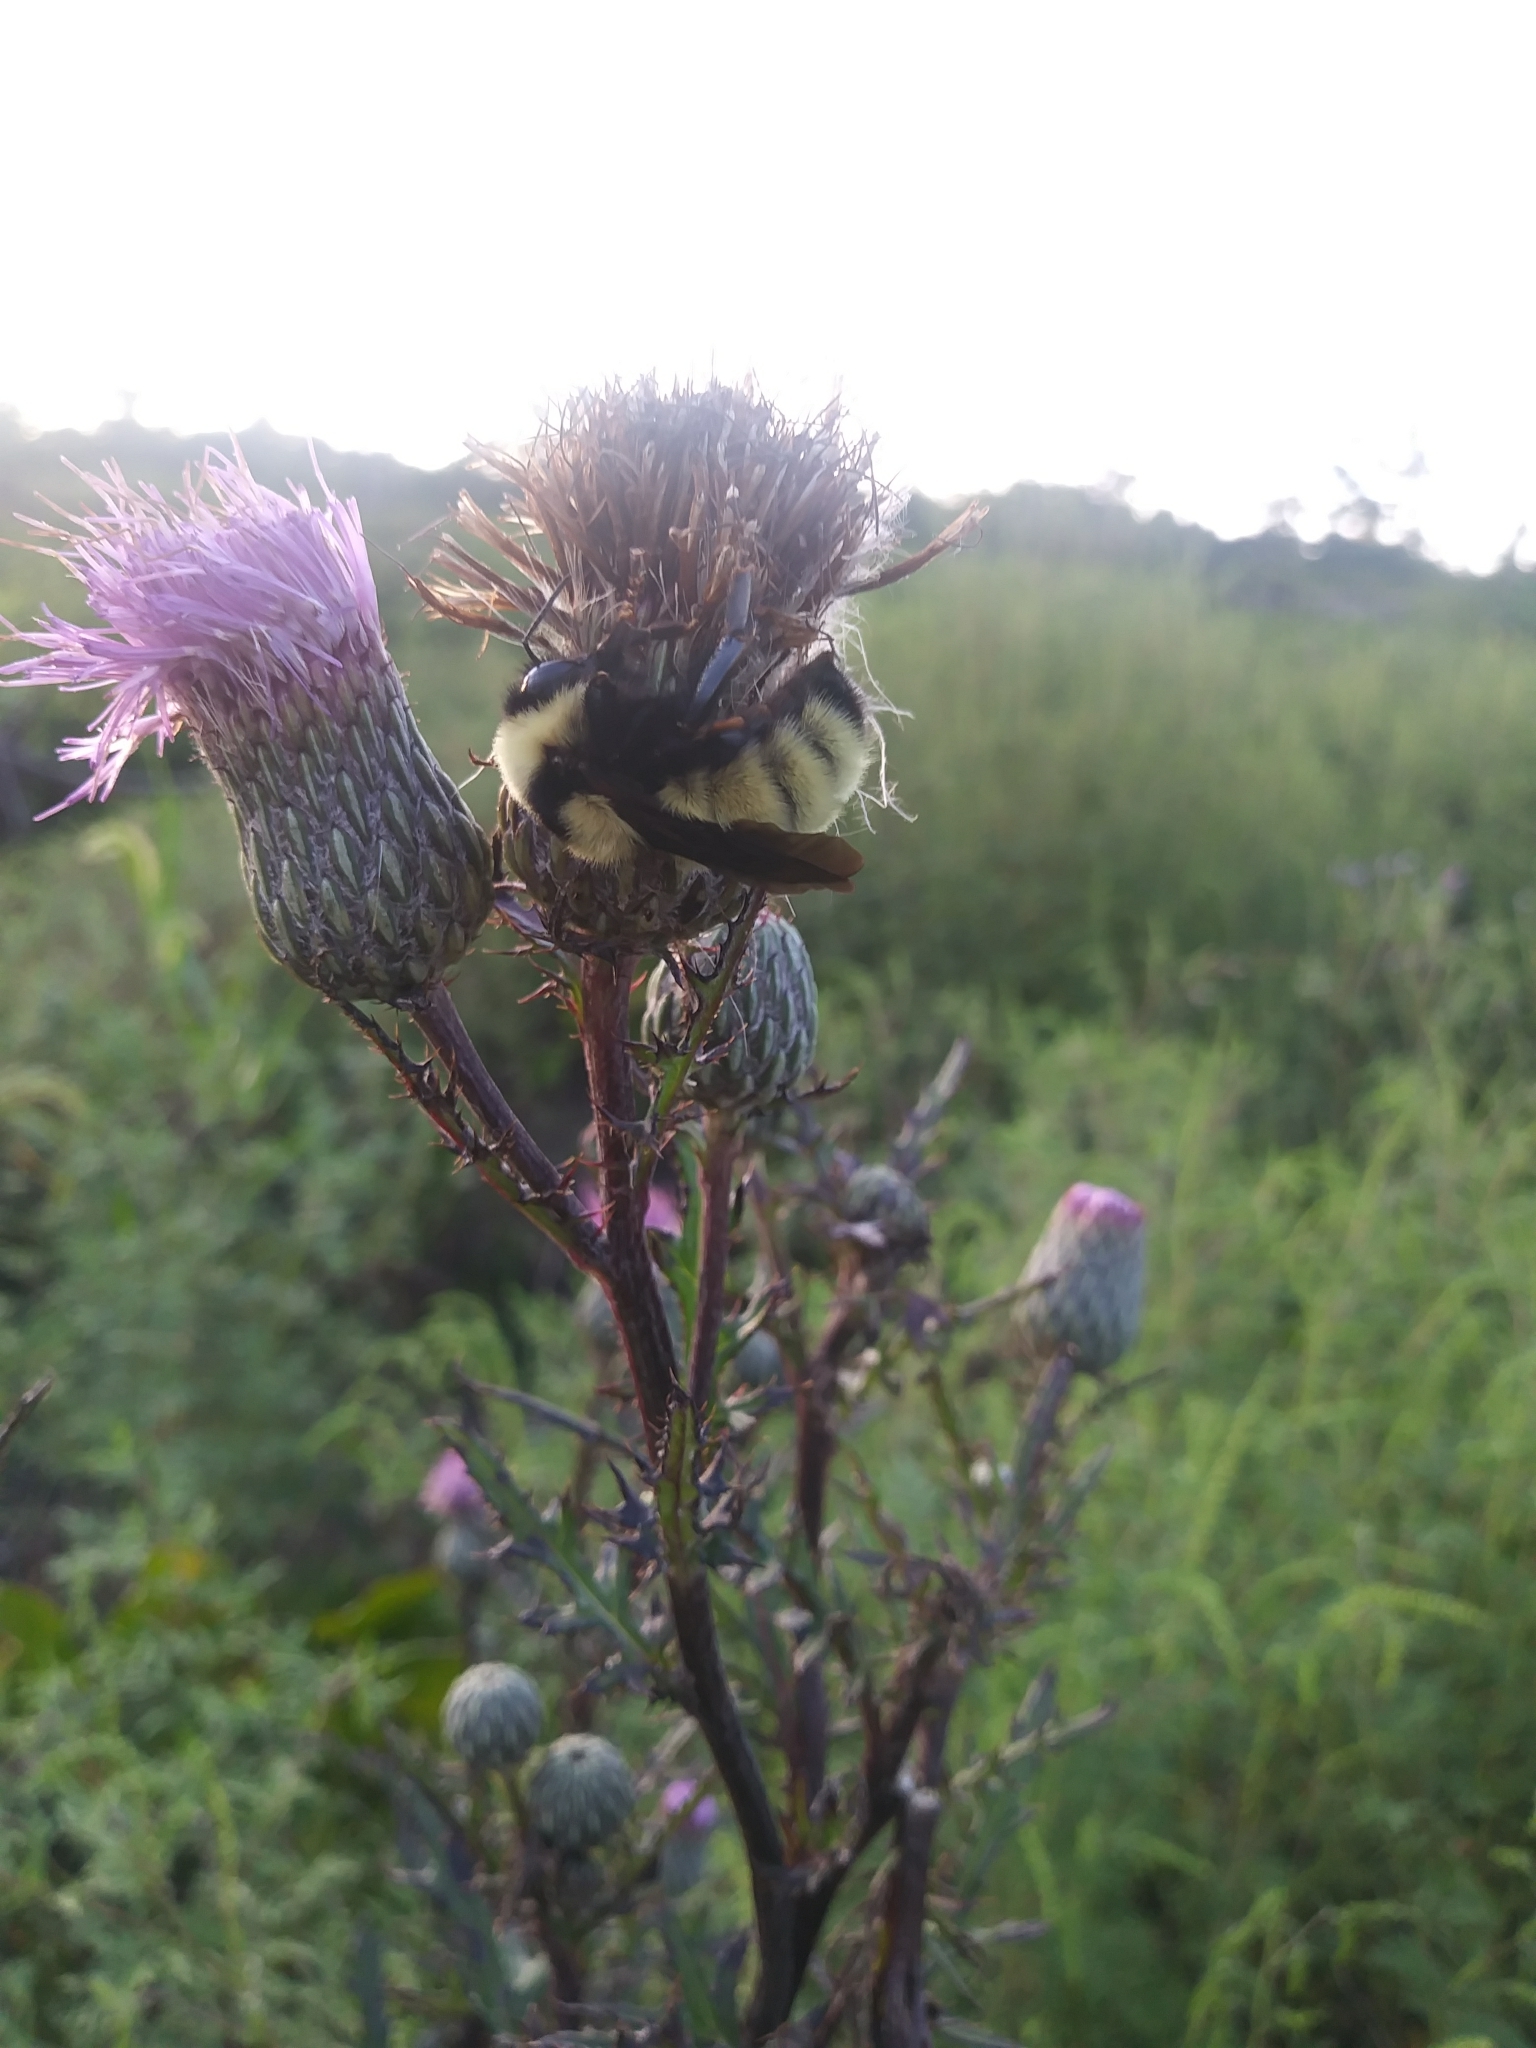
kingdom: Animalia
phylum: Arthropoda
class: Insecta
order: Hymenoptera
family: Apidae
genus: Bombus
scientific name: Bombus fervidus
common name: Yellow bumble bee
